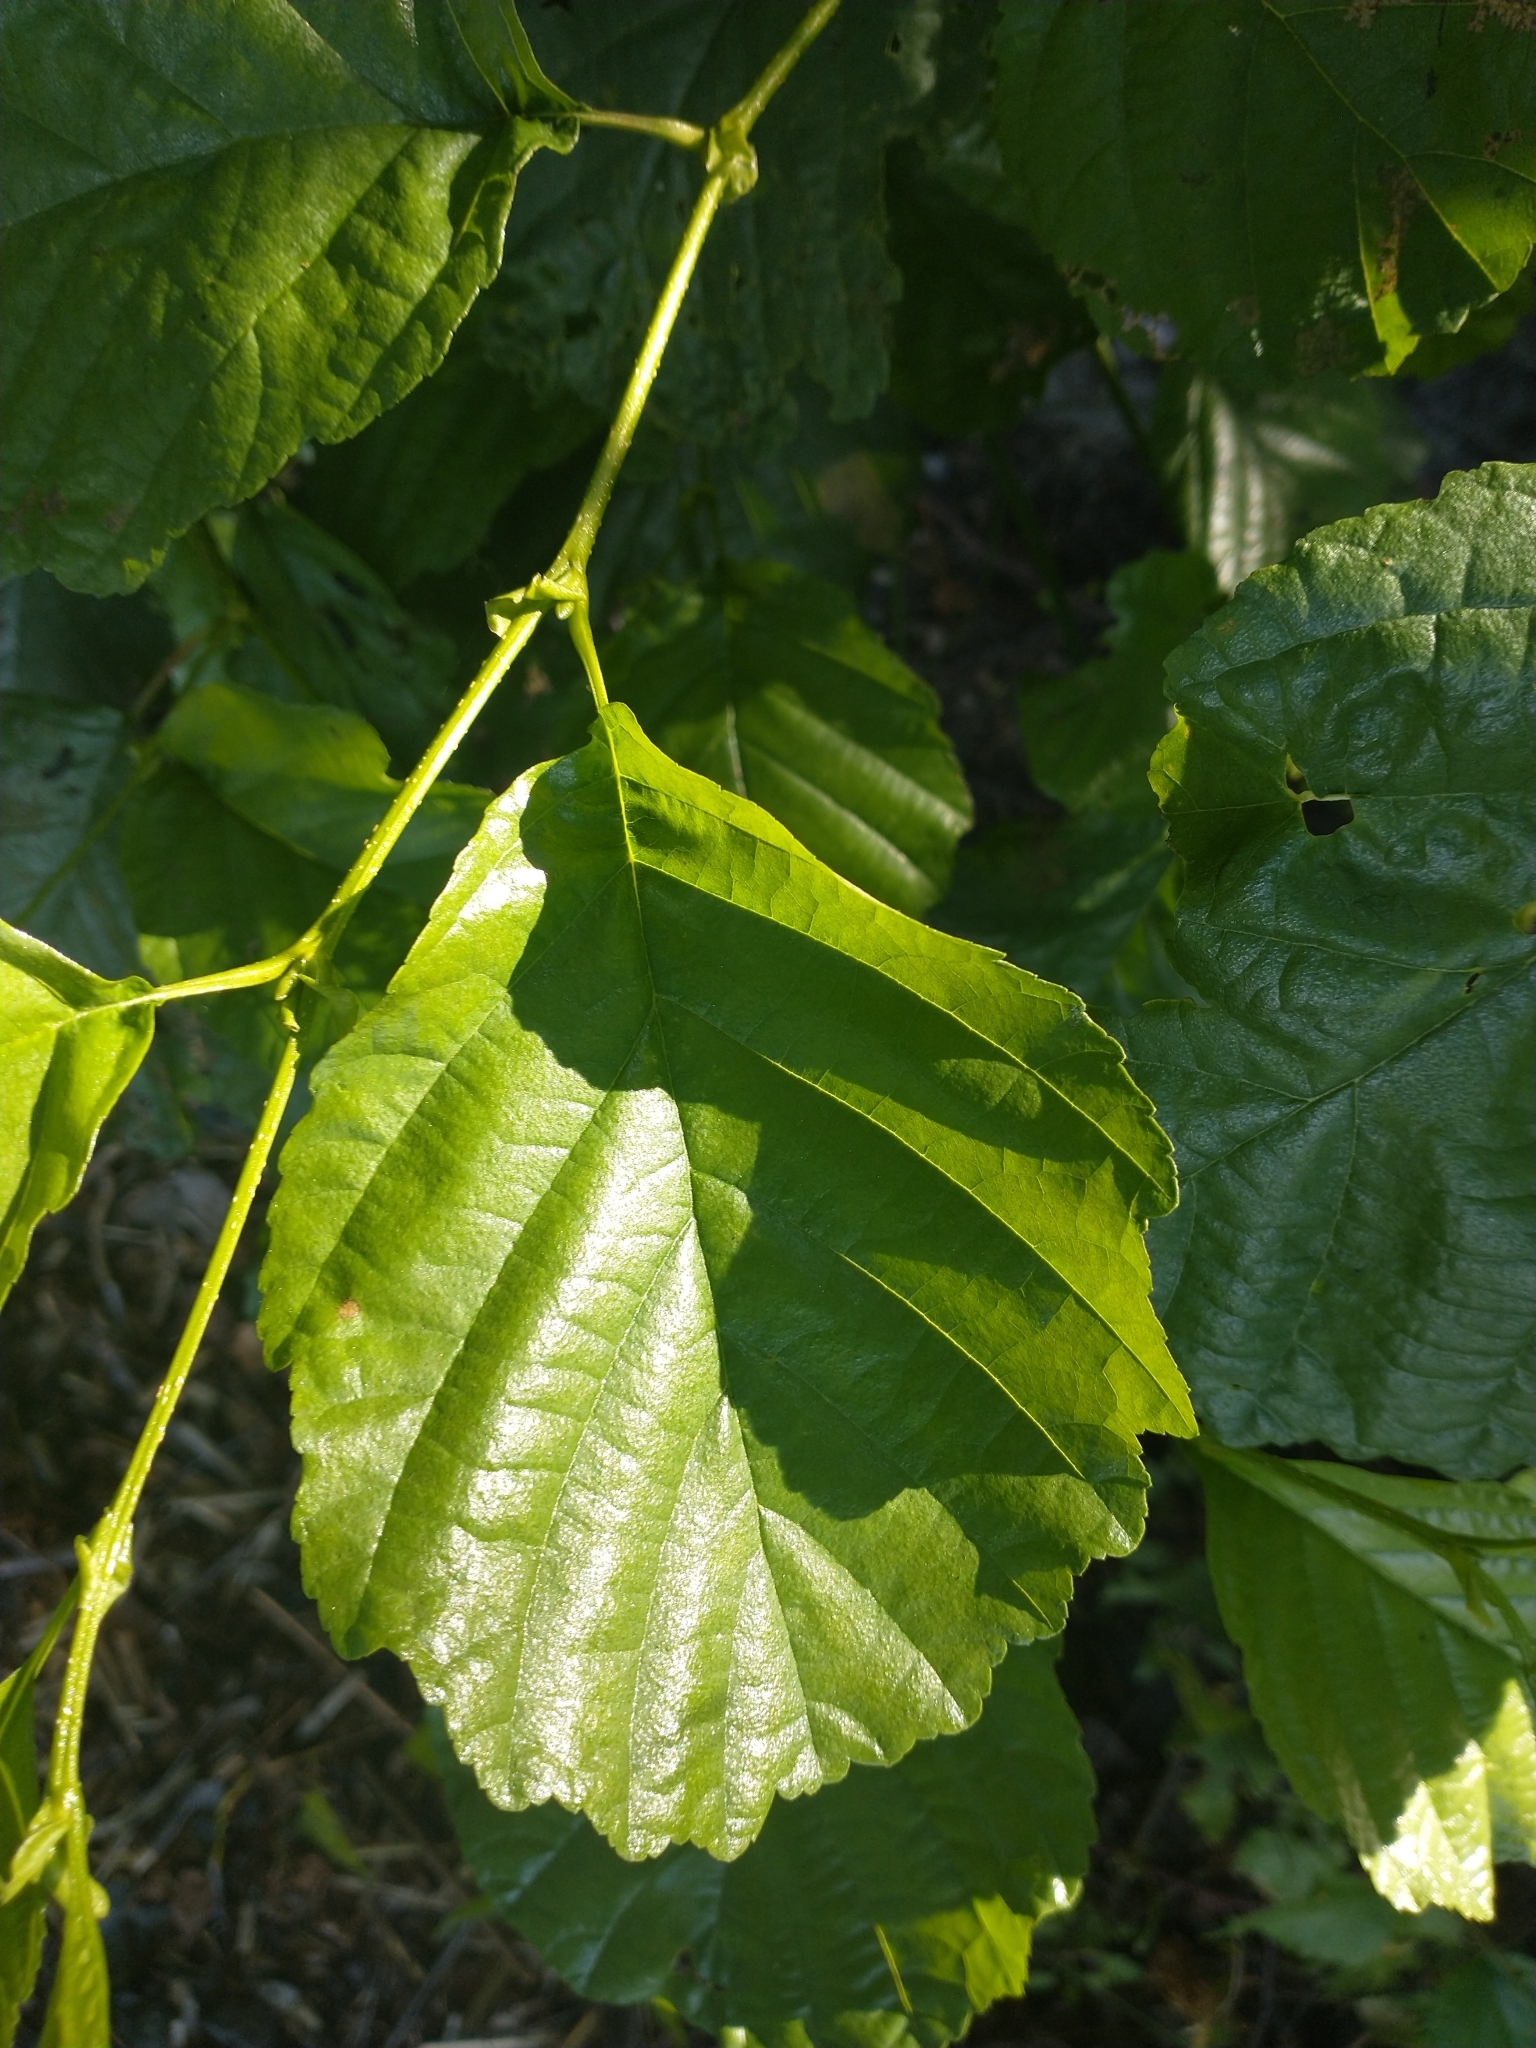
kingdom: Plantae
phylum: Tracheophyta
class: Magnoliopsida
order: Fagales
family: Betulaceae
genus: Alnus
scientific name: Alnus glutinosa
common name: Black alder
